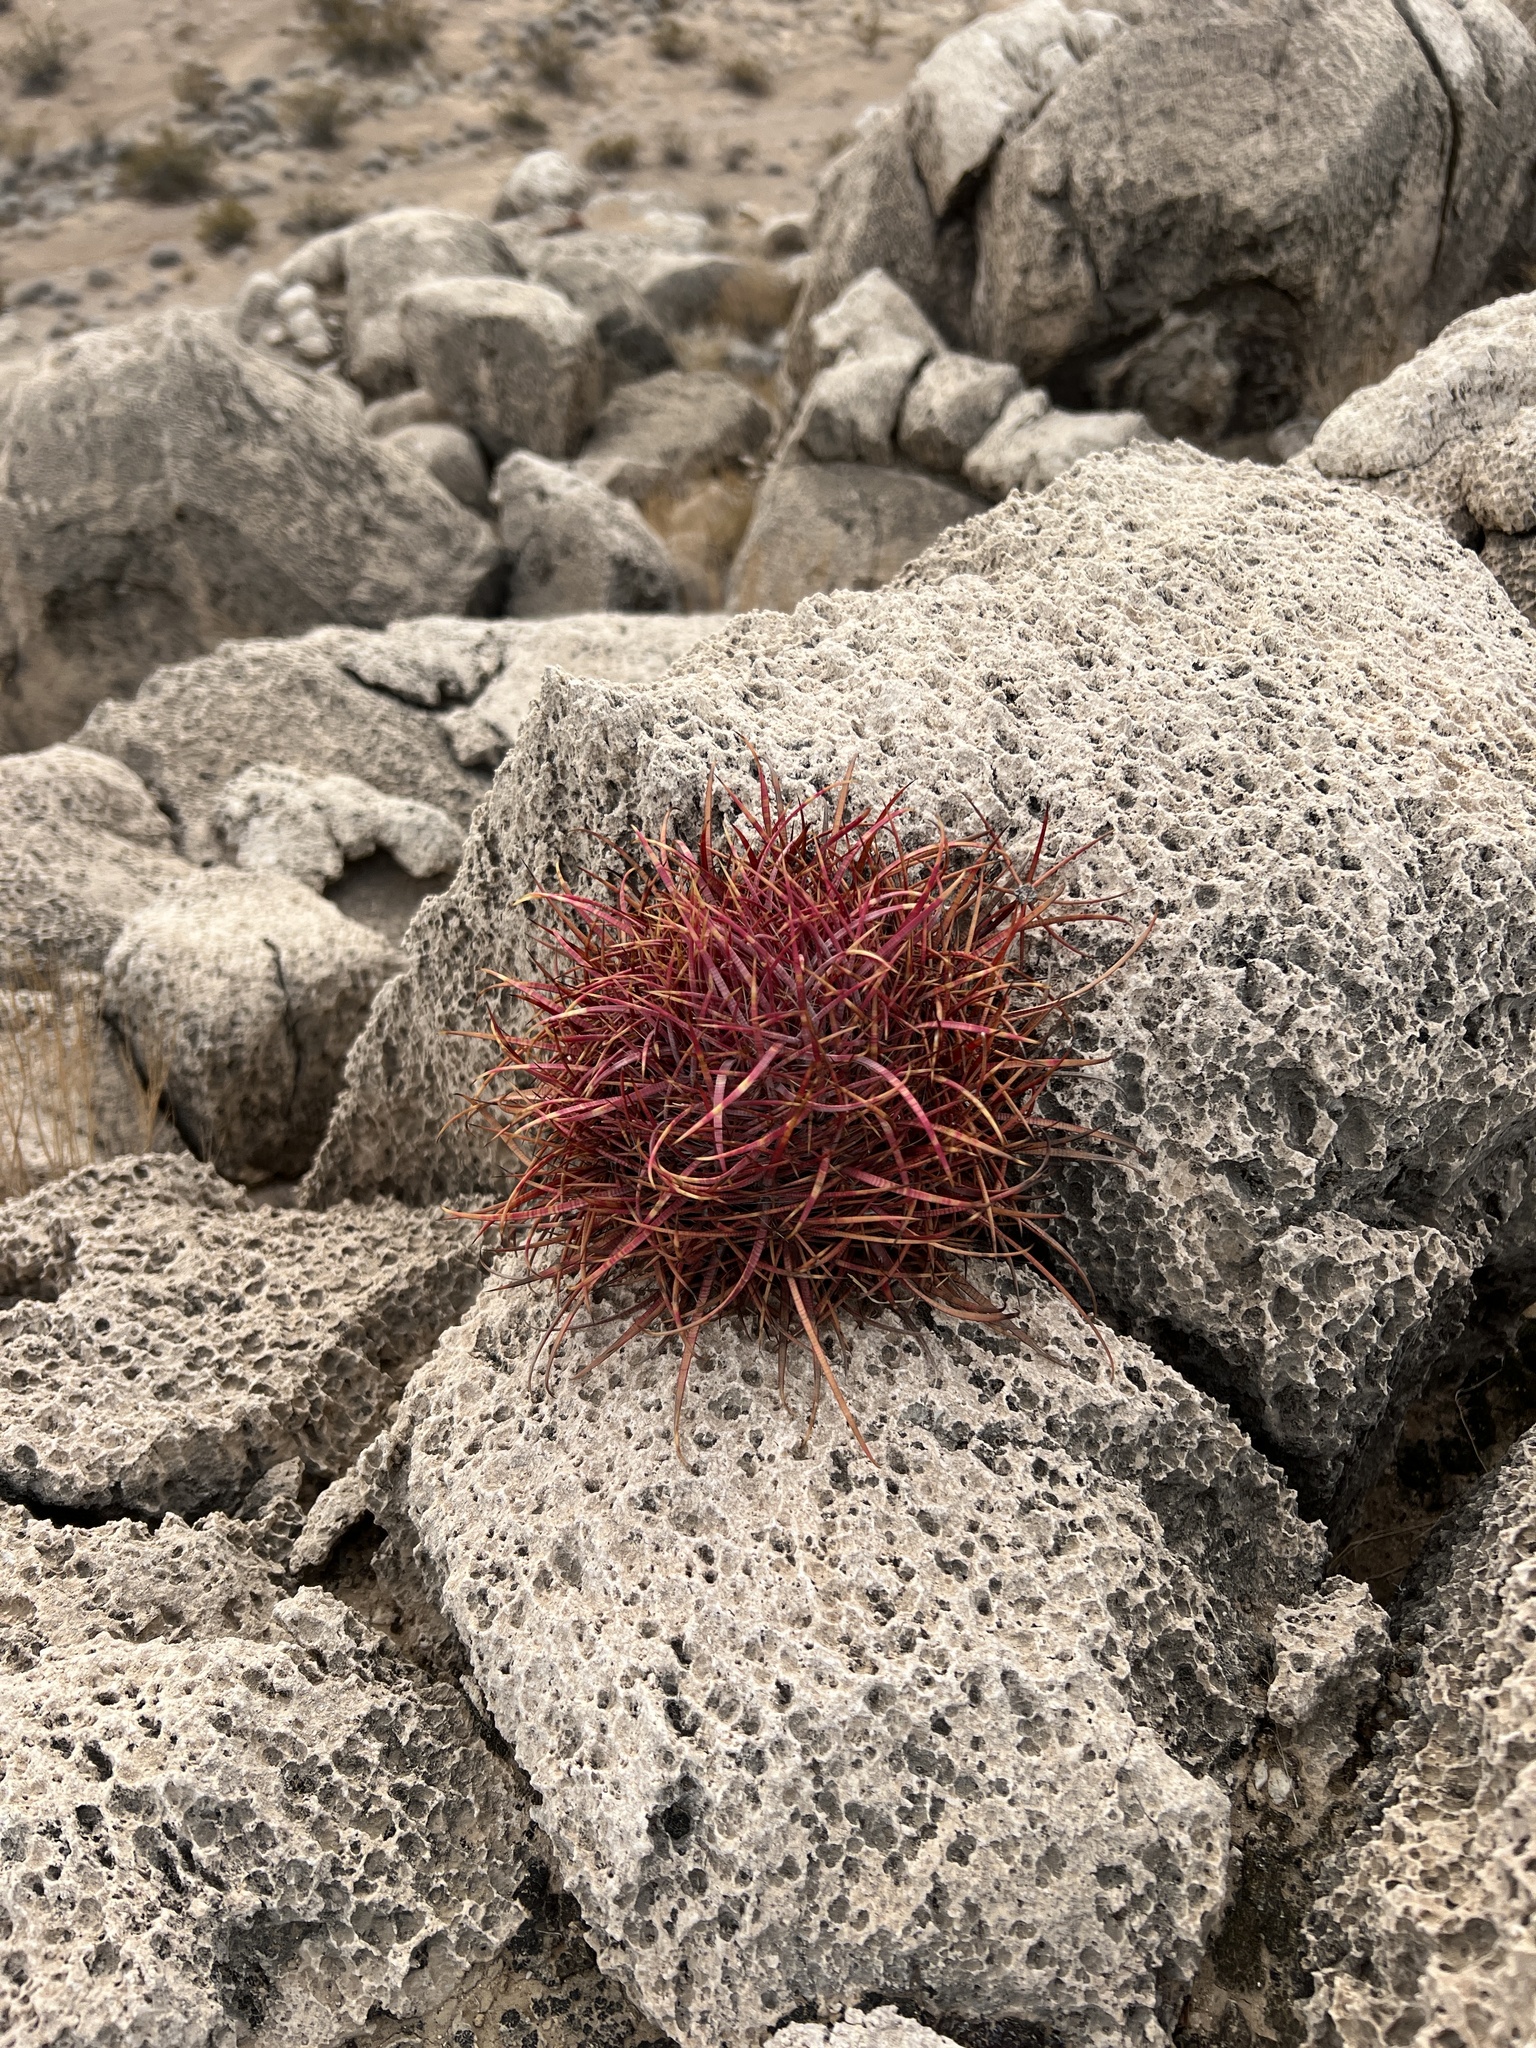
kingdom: Plantae
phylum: Tracheophyta
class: Magnoliopsida
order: Caryophyllales
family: Cactaceae
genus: Ferocactus
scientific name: Ferocactus cylindraceus
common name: California barrel cactus
